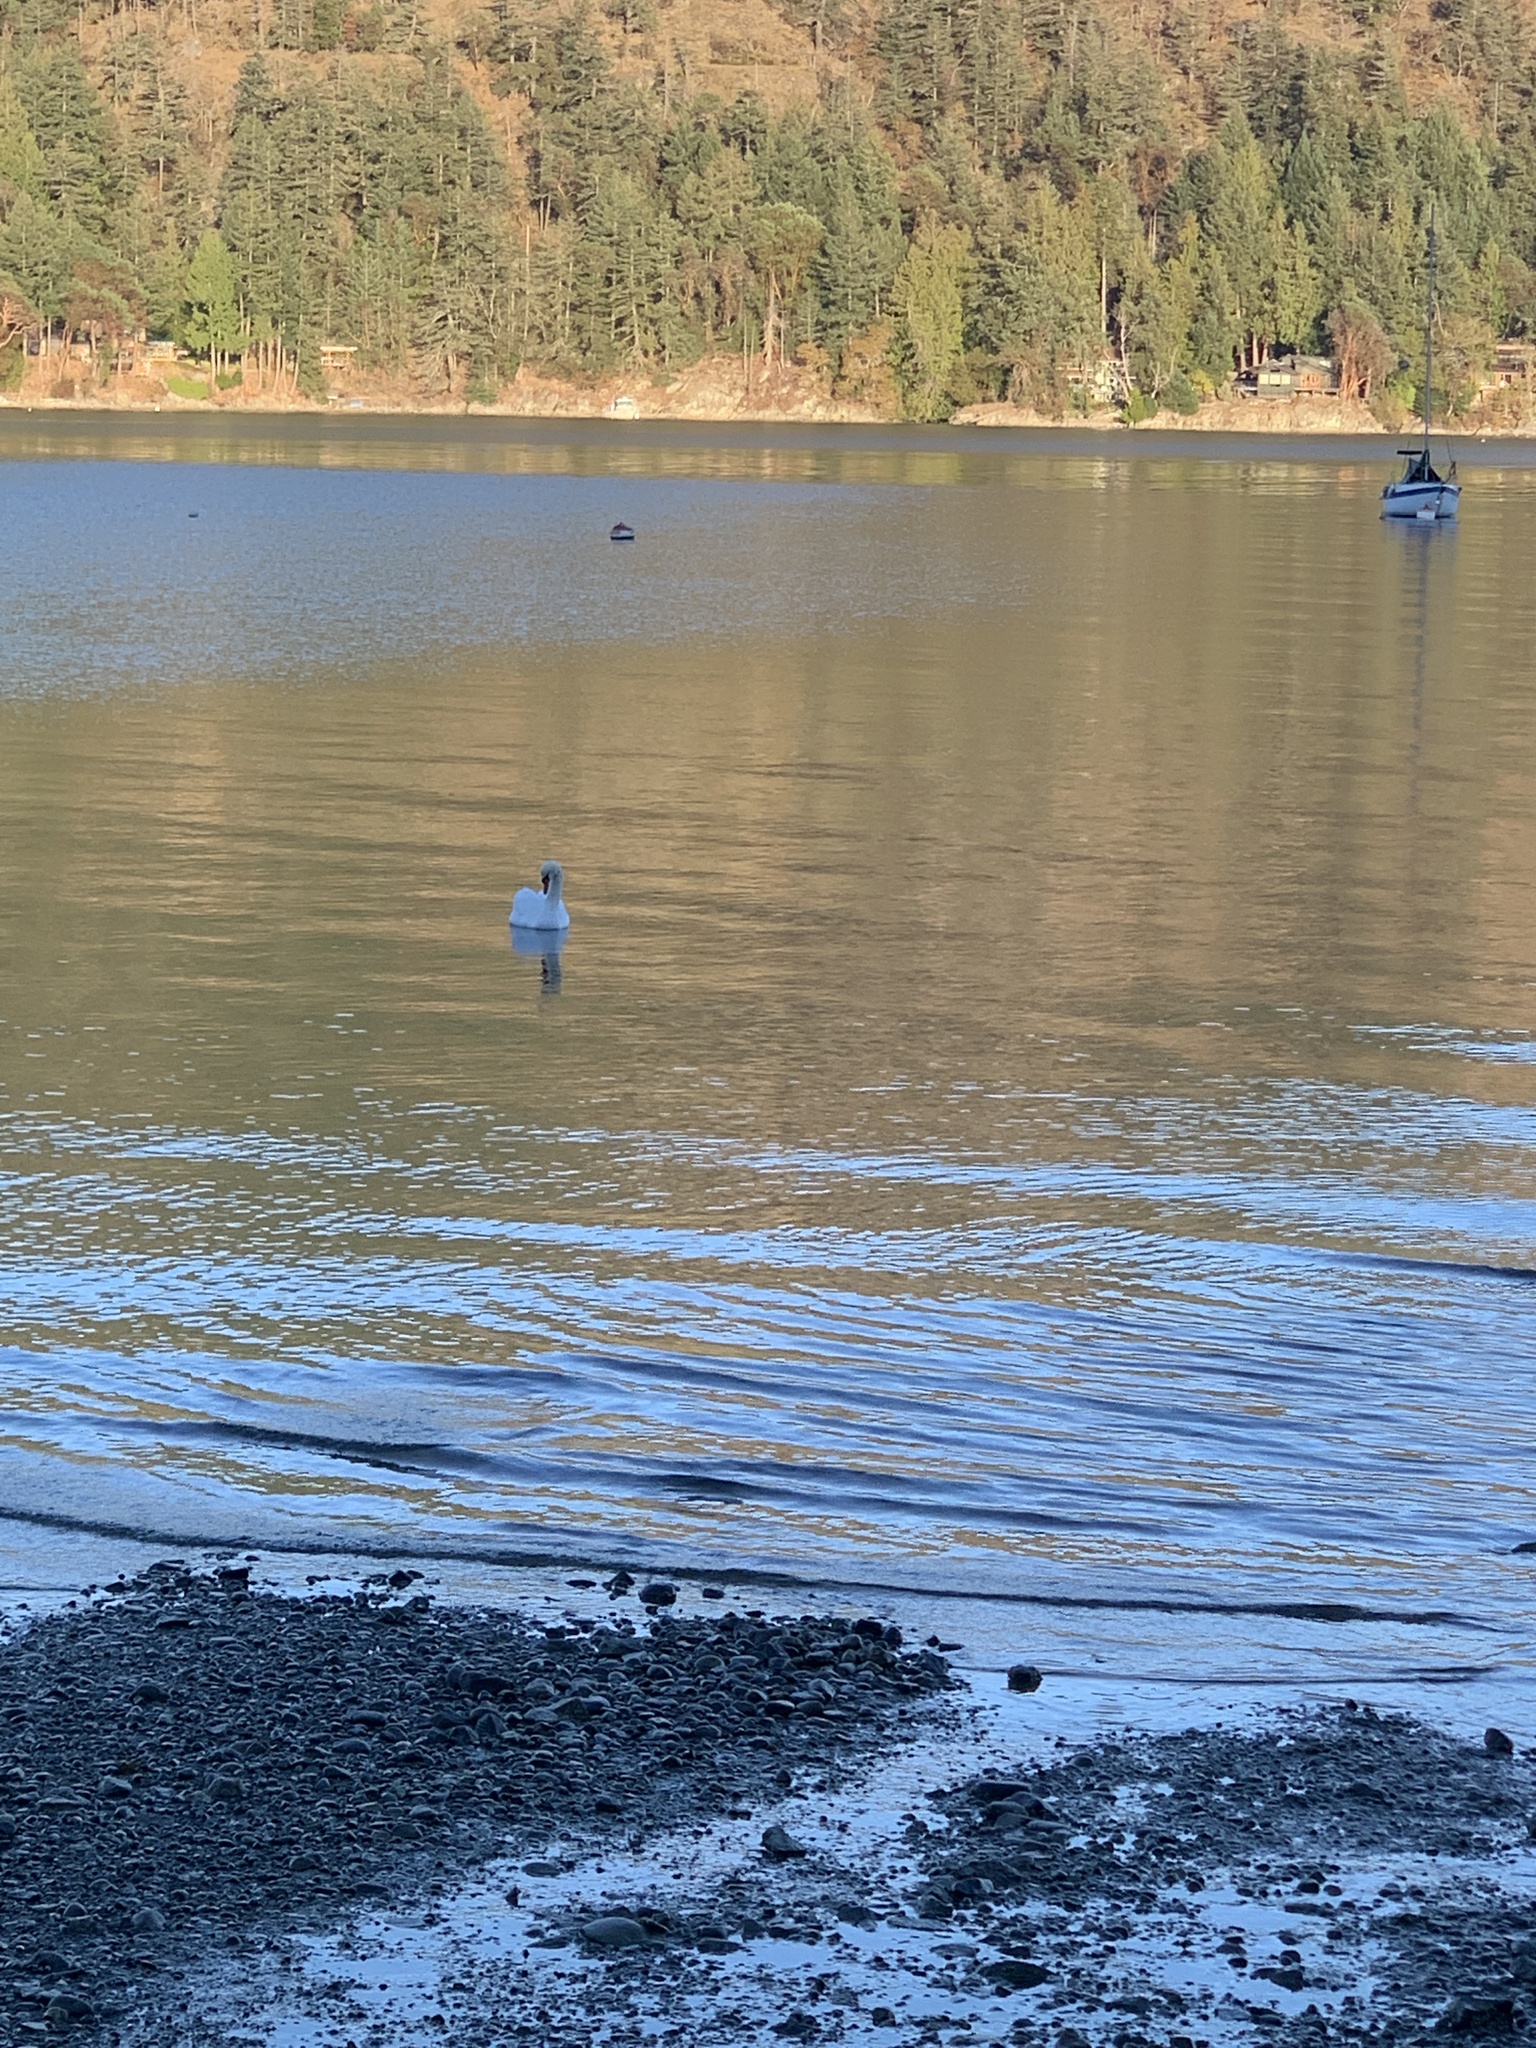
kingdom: Animalia
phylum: Chordata
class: Aves
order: Anseriformes
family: Anatidae
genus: Cygnus
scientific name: Cygnus olor
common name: Mute swan
